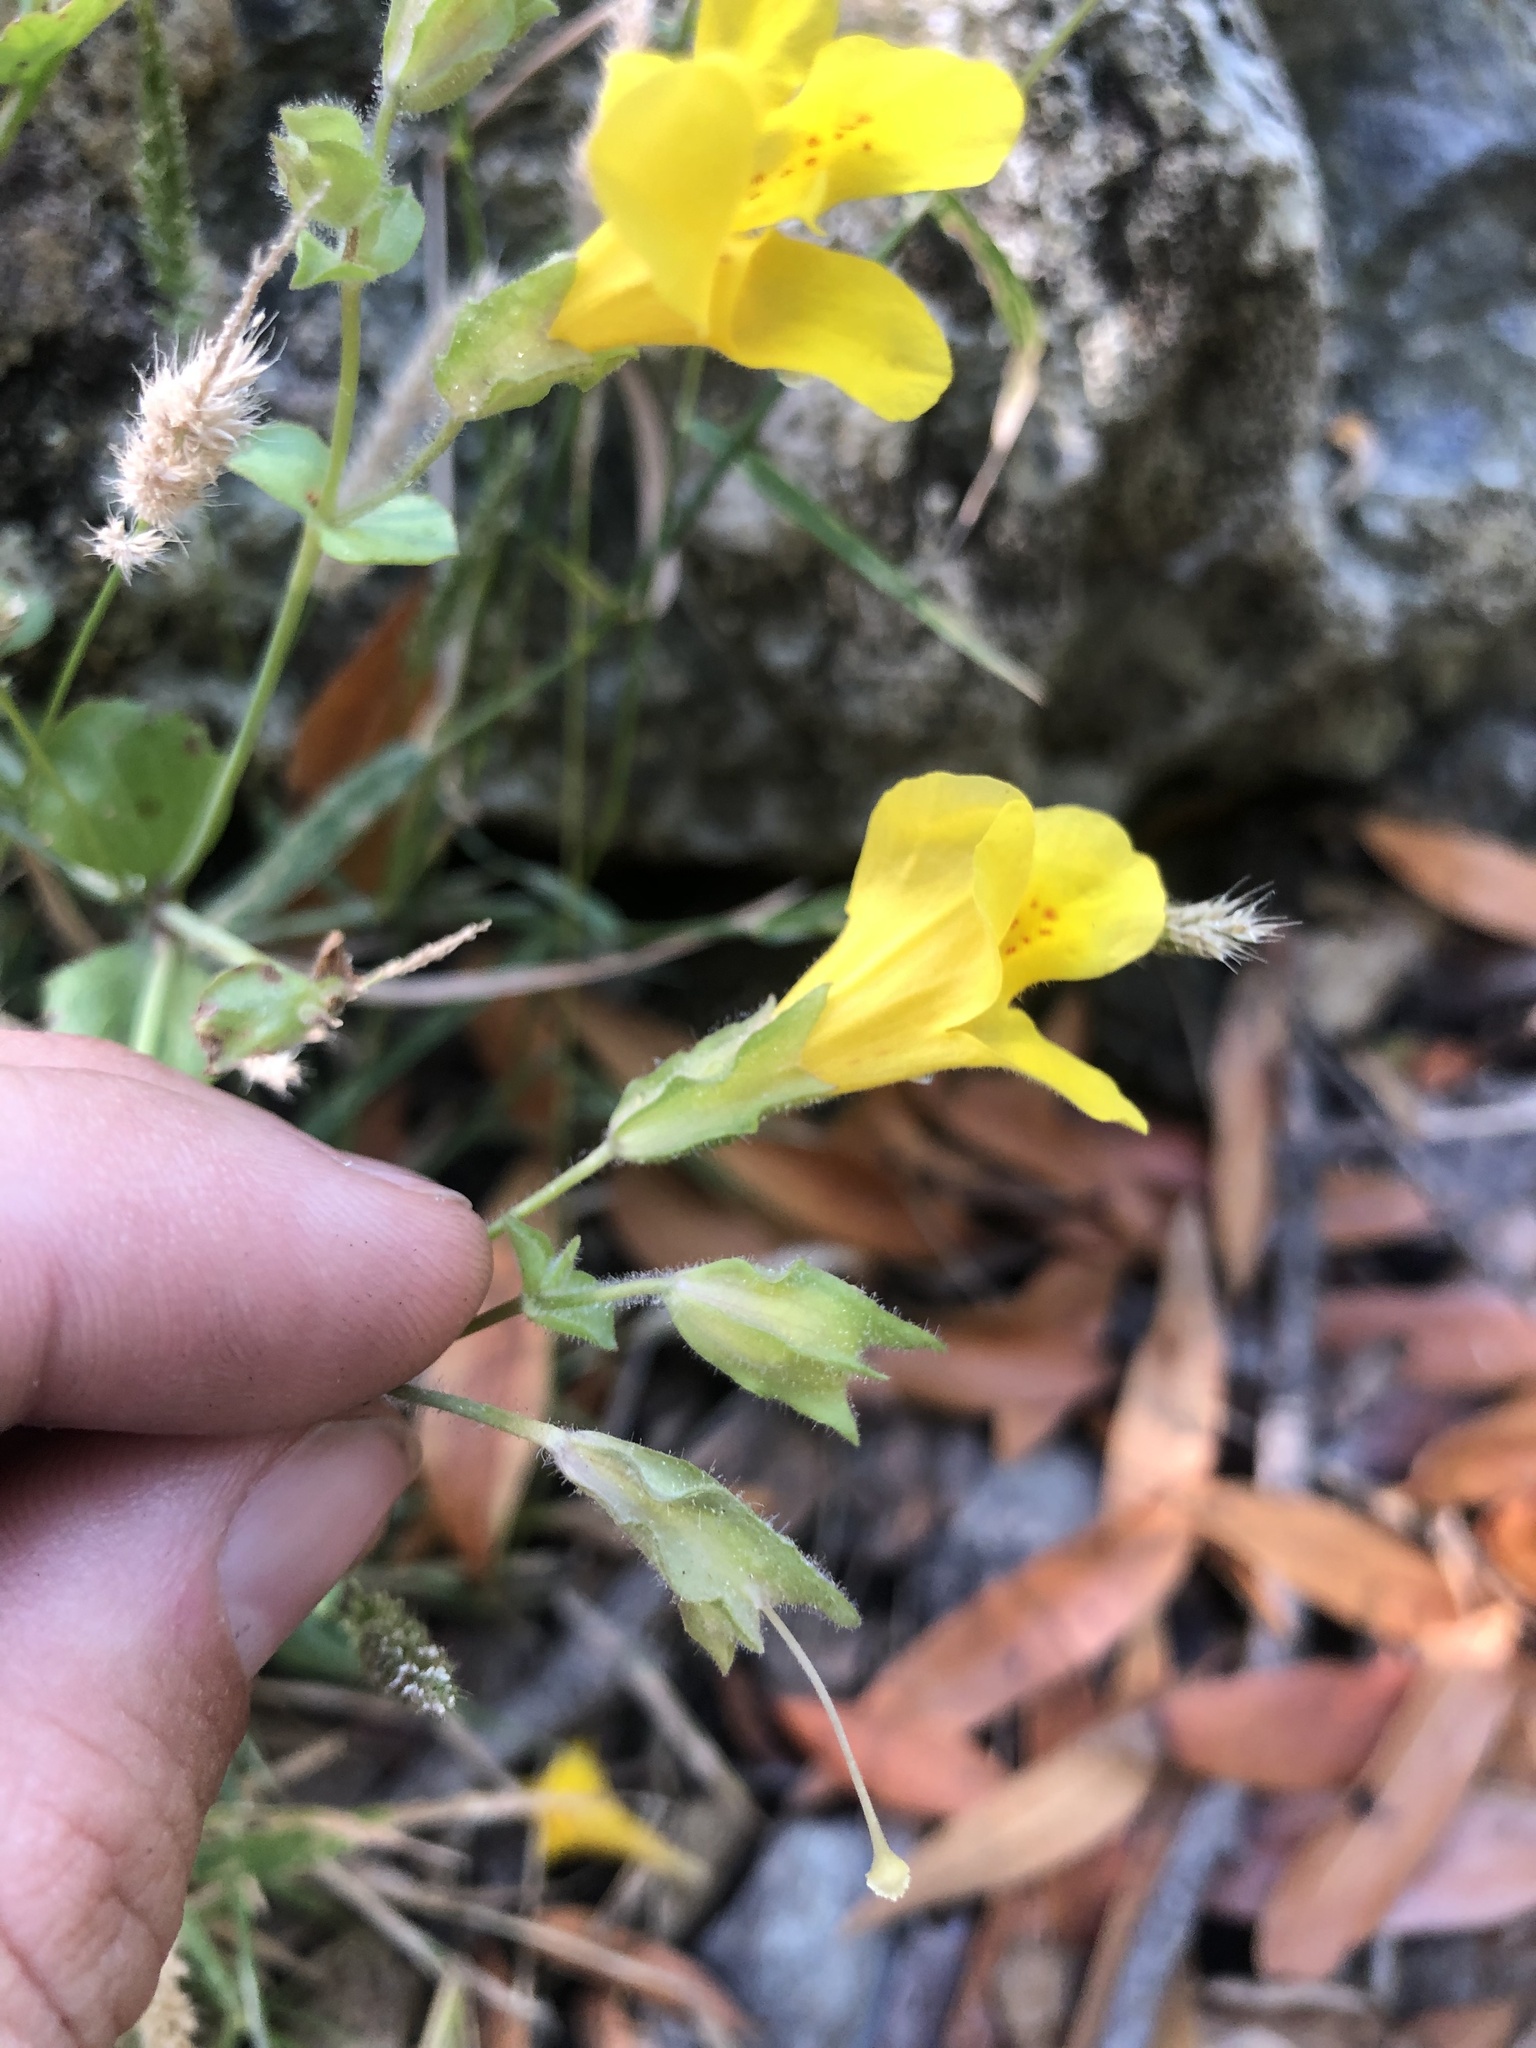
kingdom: Plantae
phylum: Tracheophyta
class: Magnoliopsida
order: Lamiales
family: Phrymaceae
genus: Erythranthe
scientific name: Erythranthe guttata
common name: Monkeyflower
